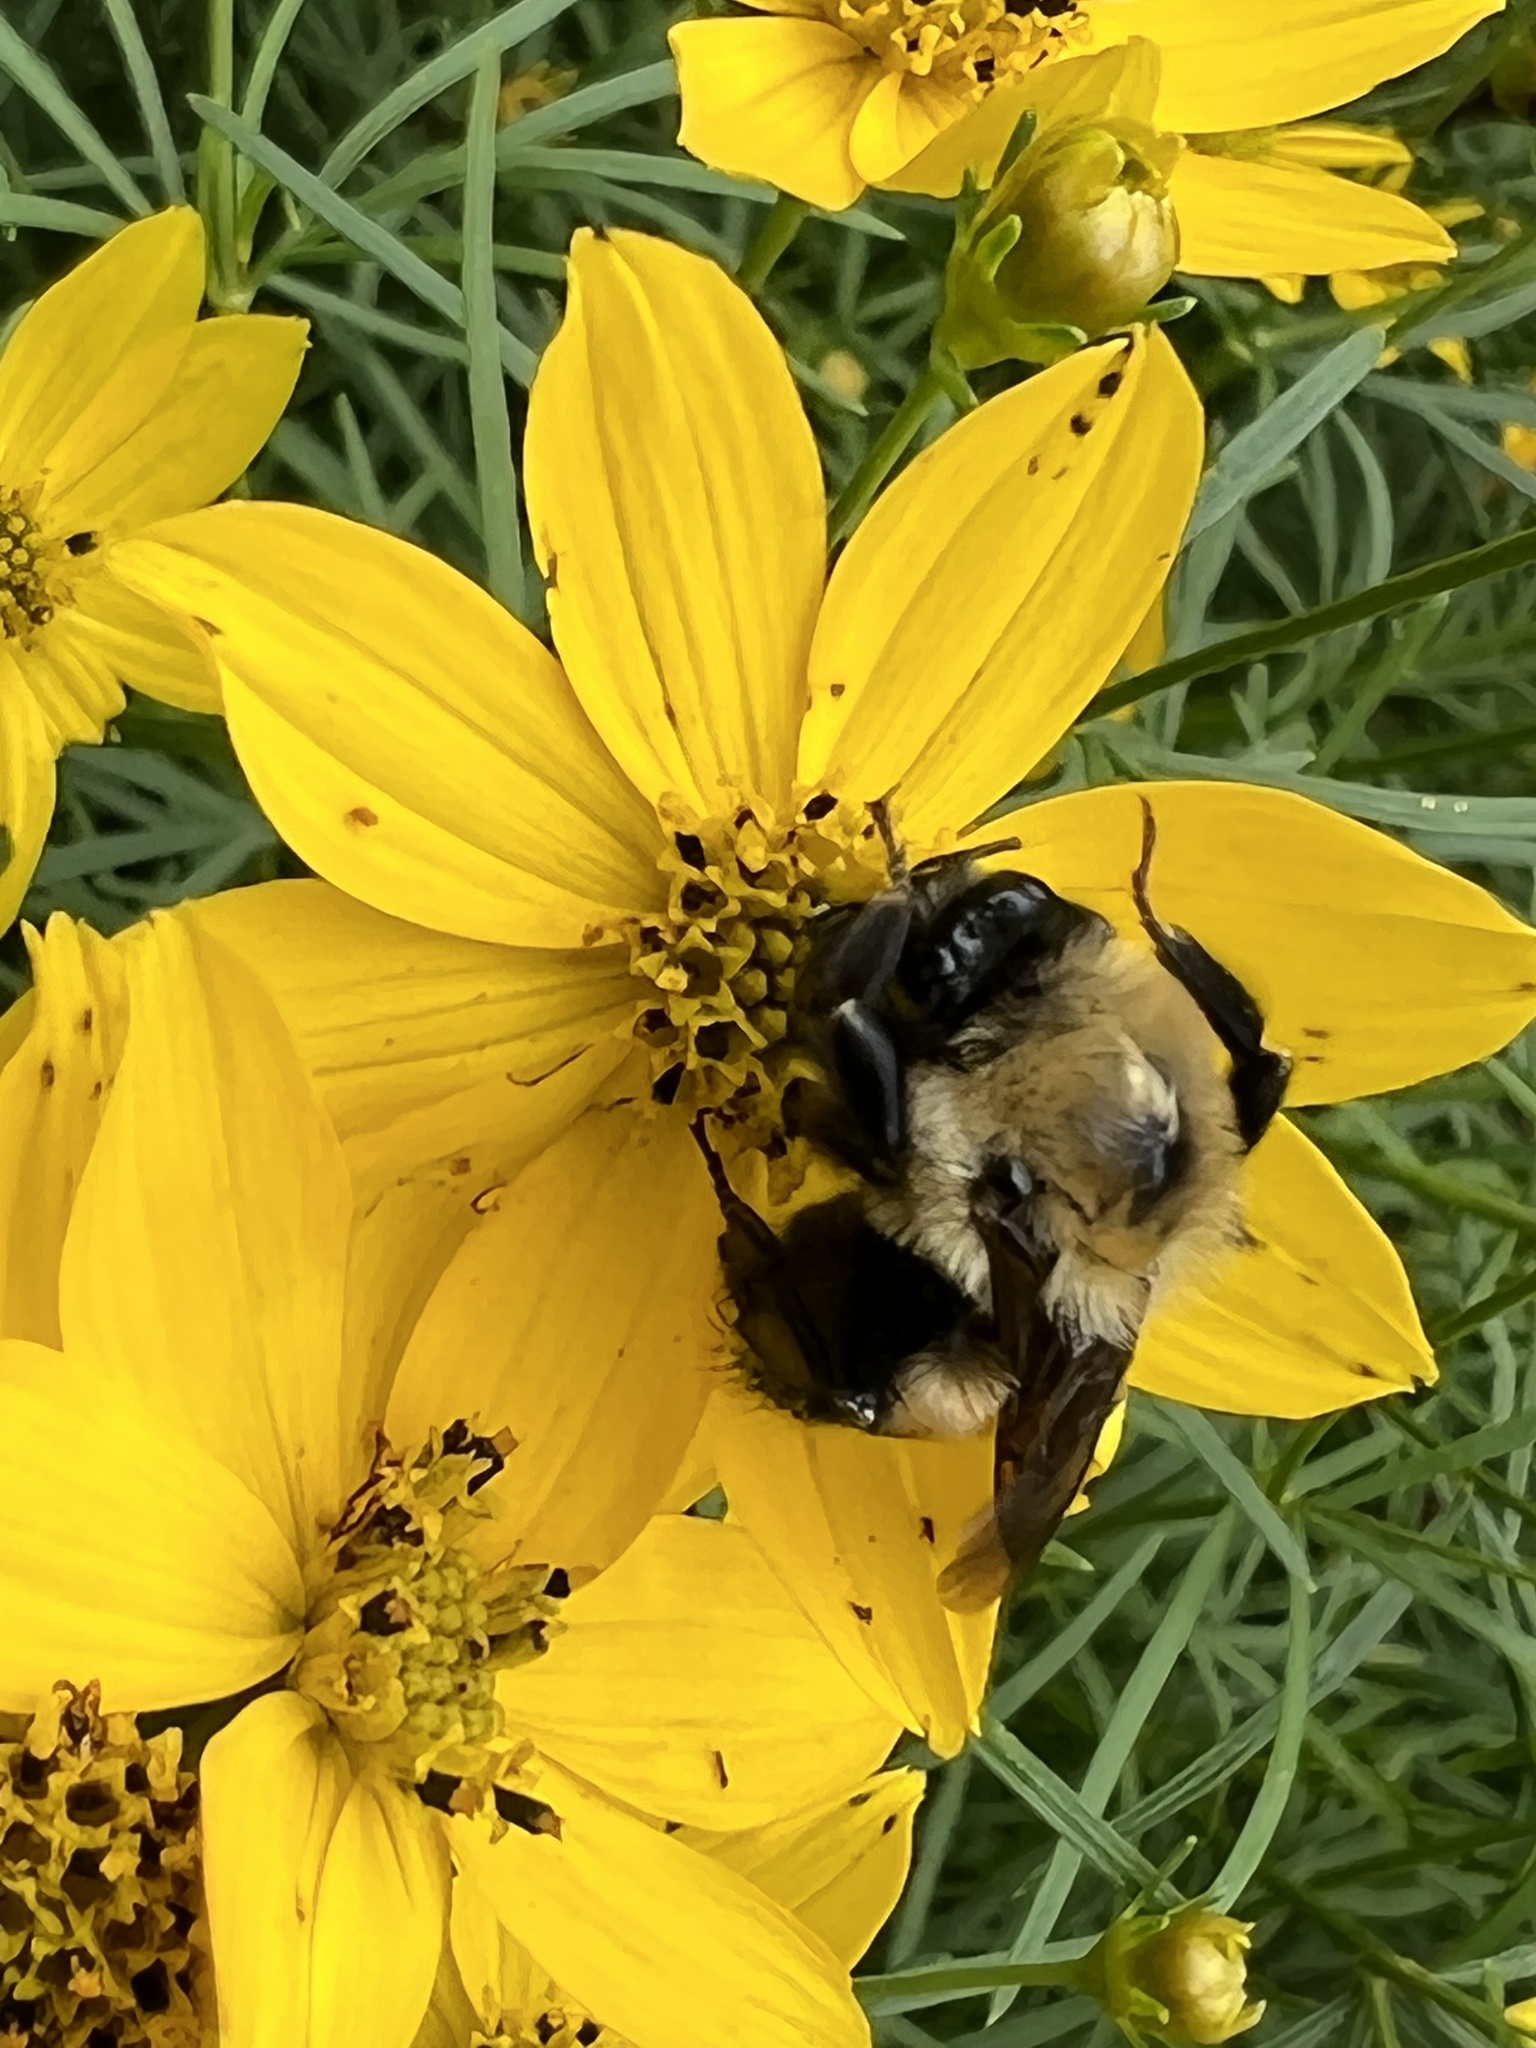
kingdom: Animalia
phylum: Arthropoda
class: Insecta
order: Hymenoptera
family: Apidae
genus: Bombus
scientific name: Bombus griseocollis
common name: Brown-belted bumble bee
